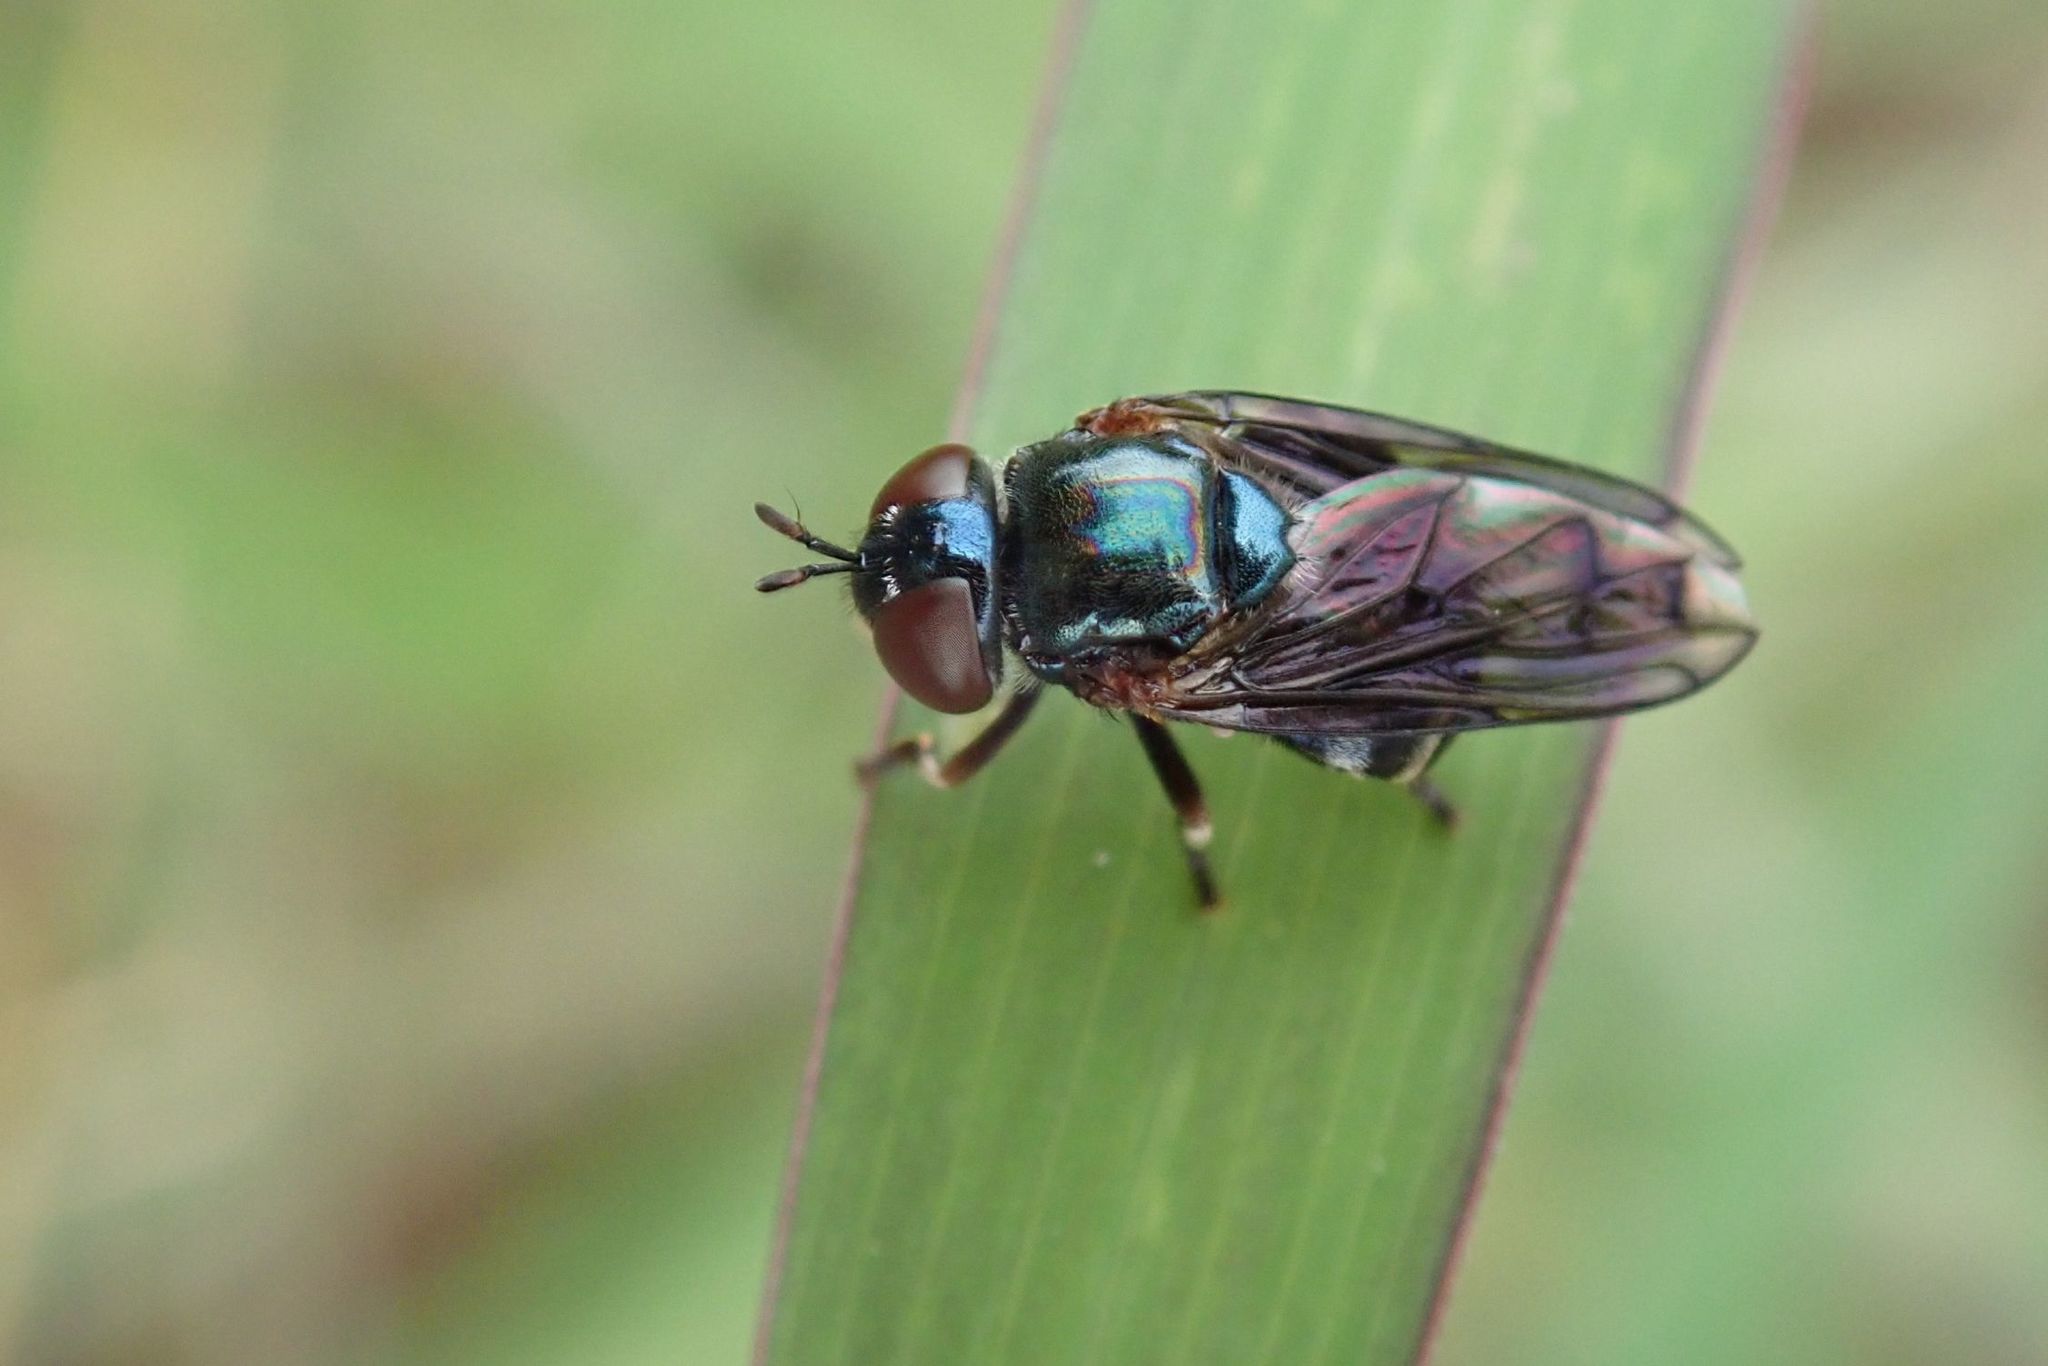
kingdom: Animalia
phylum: Arthropoda
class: Insecta
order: Diptera
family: Syrphidae
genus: Archimicrodon
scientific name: Archimicrodon brevicornis
